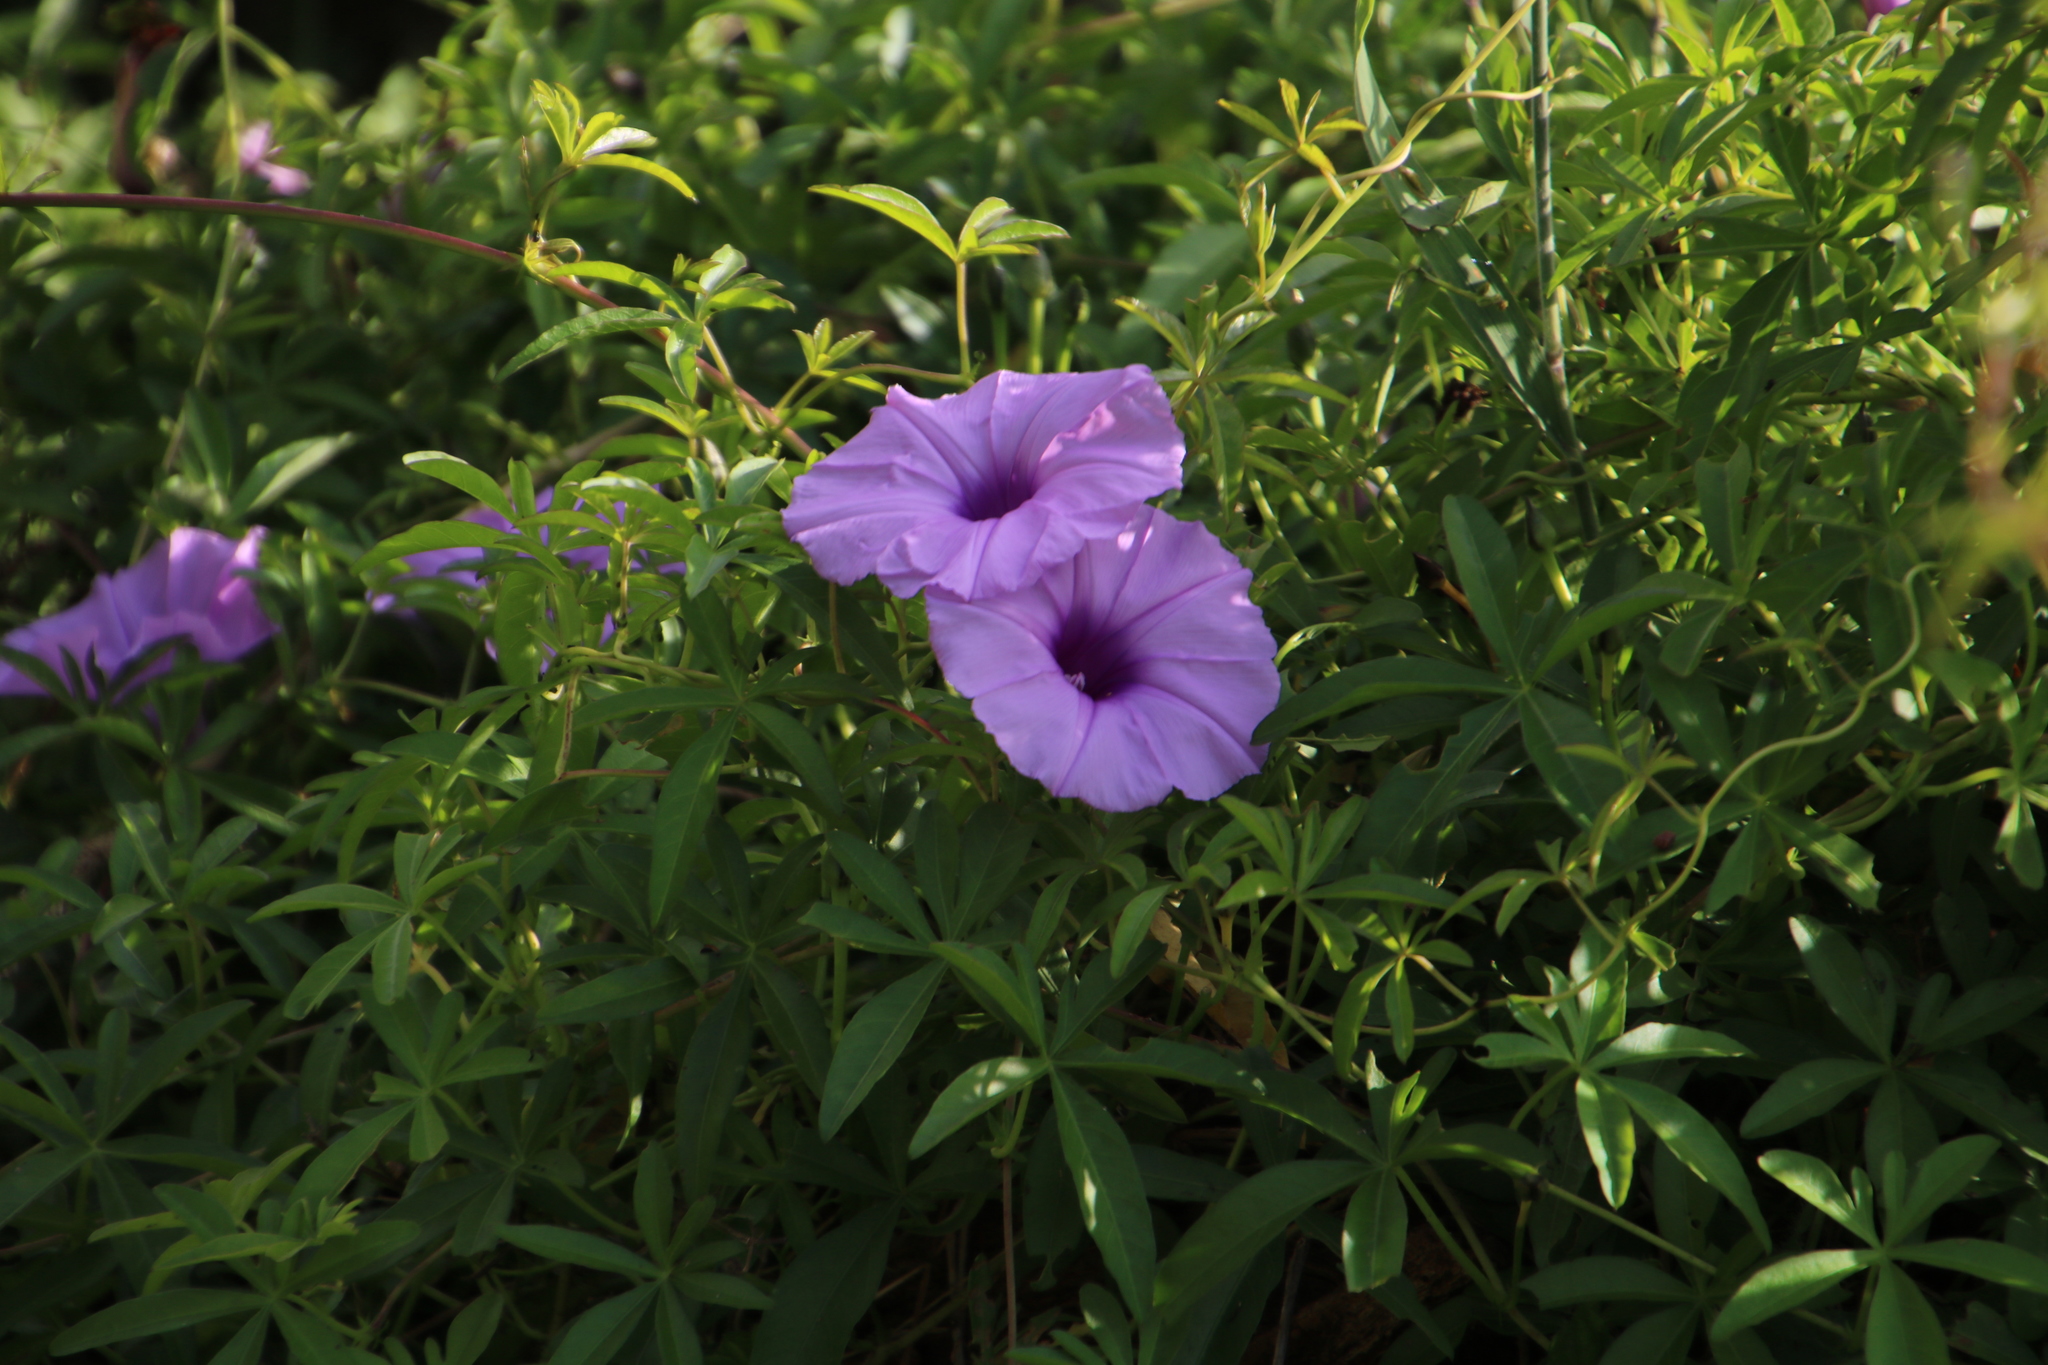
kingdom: Plantae
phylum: Tracheophyta
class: Magnoliopsida
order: Solanales
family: Convolvulaceae
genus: Ipomoea
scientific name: Ipomoea cairica
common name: Mile a minute vine
